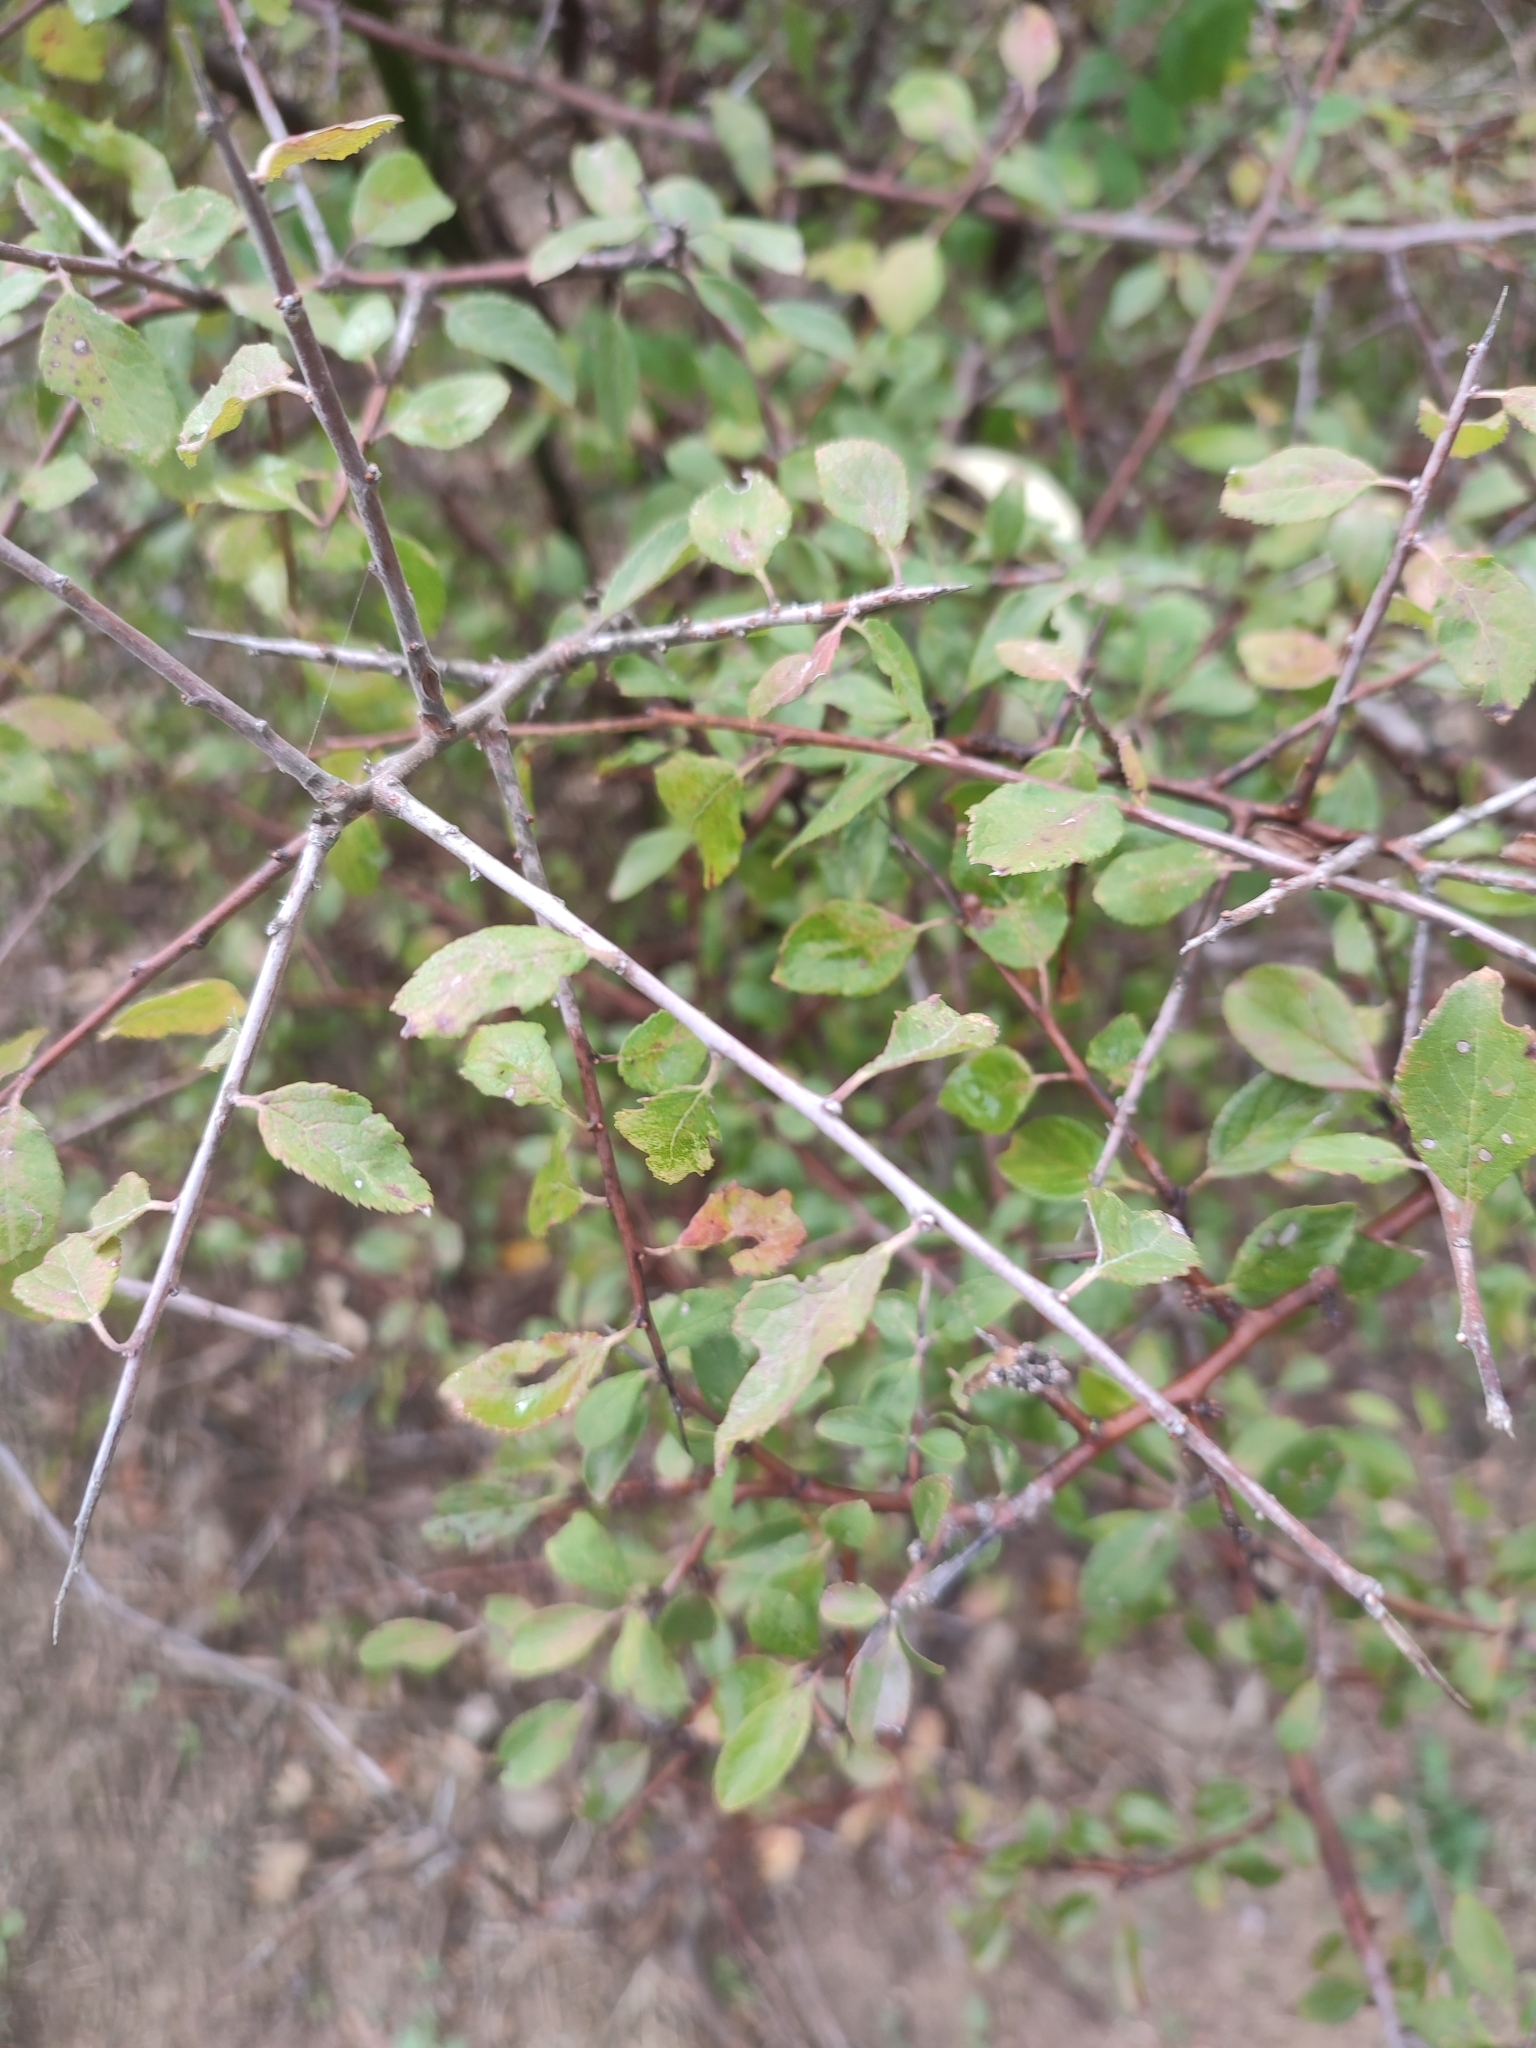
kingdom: Plantae
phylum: Tracheophyta
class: Magnoliopsida
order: Rosales
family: Rosaceae
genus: Prunus
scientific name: Prunus spinosa
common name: Blackthorn
